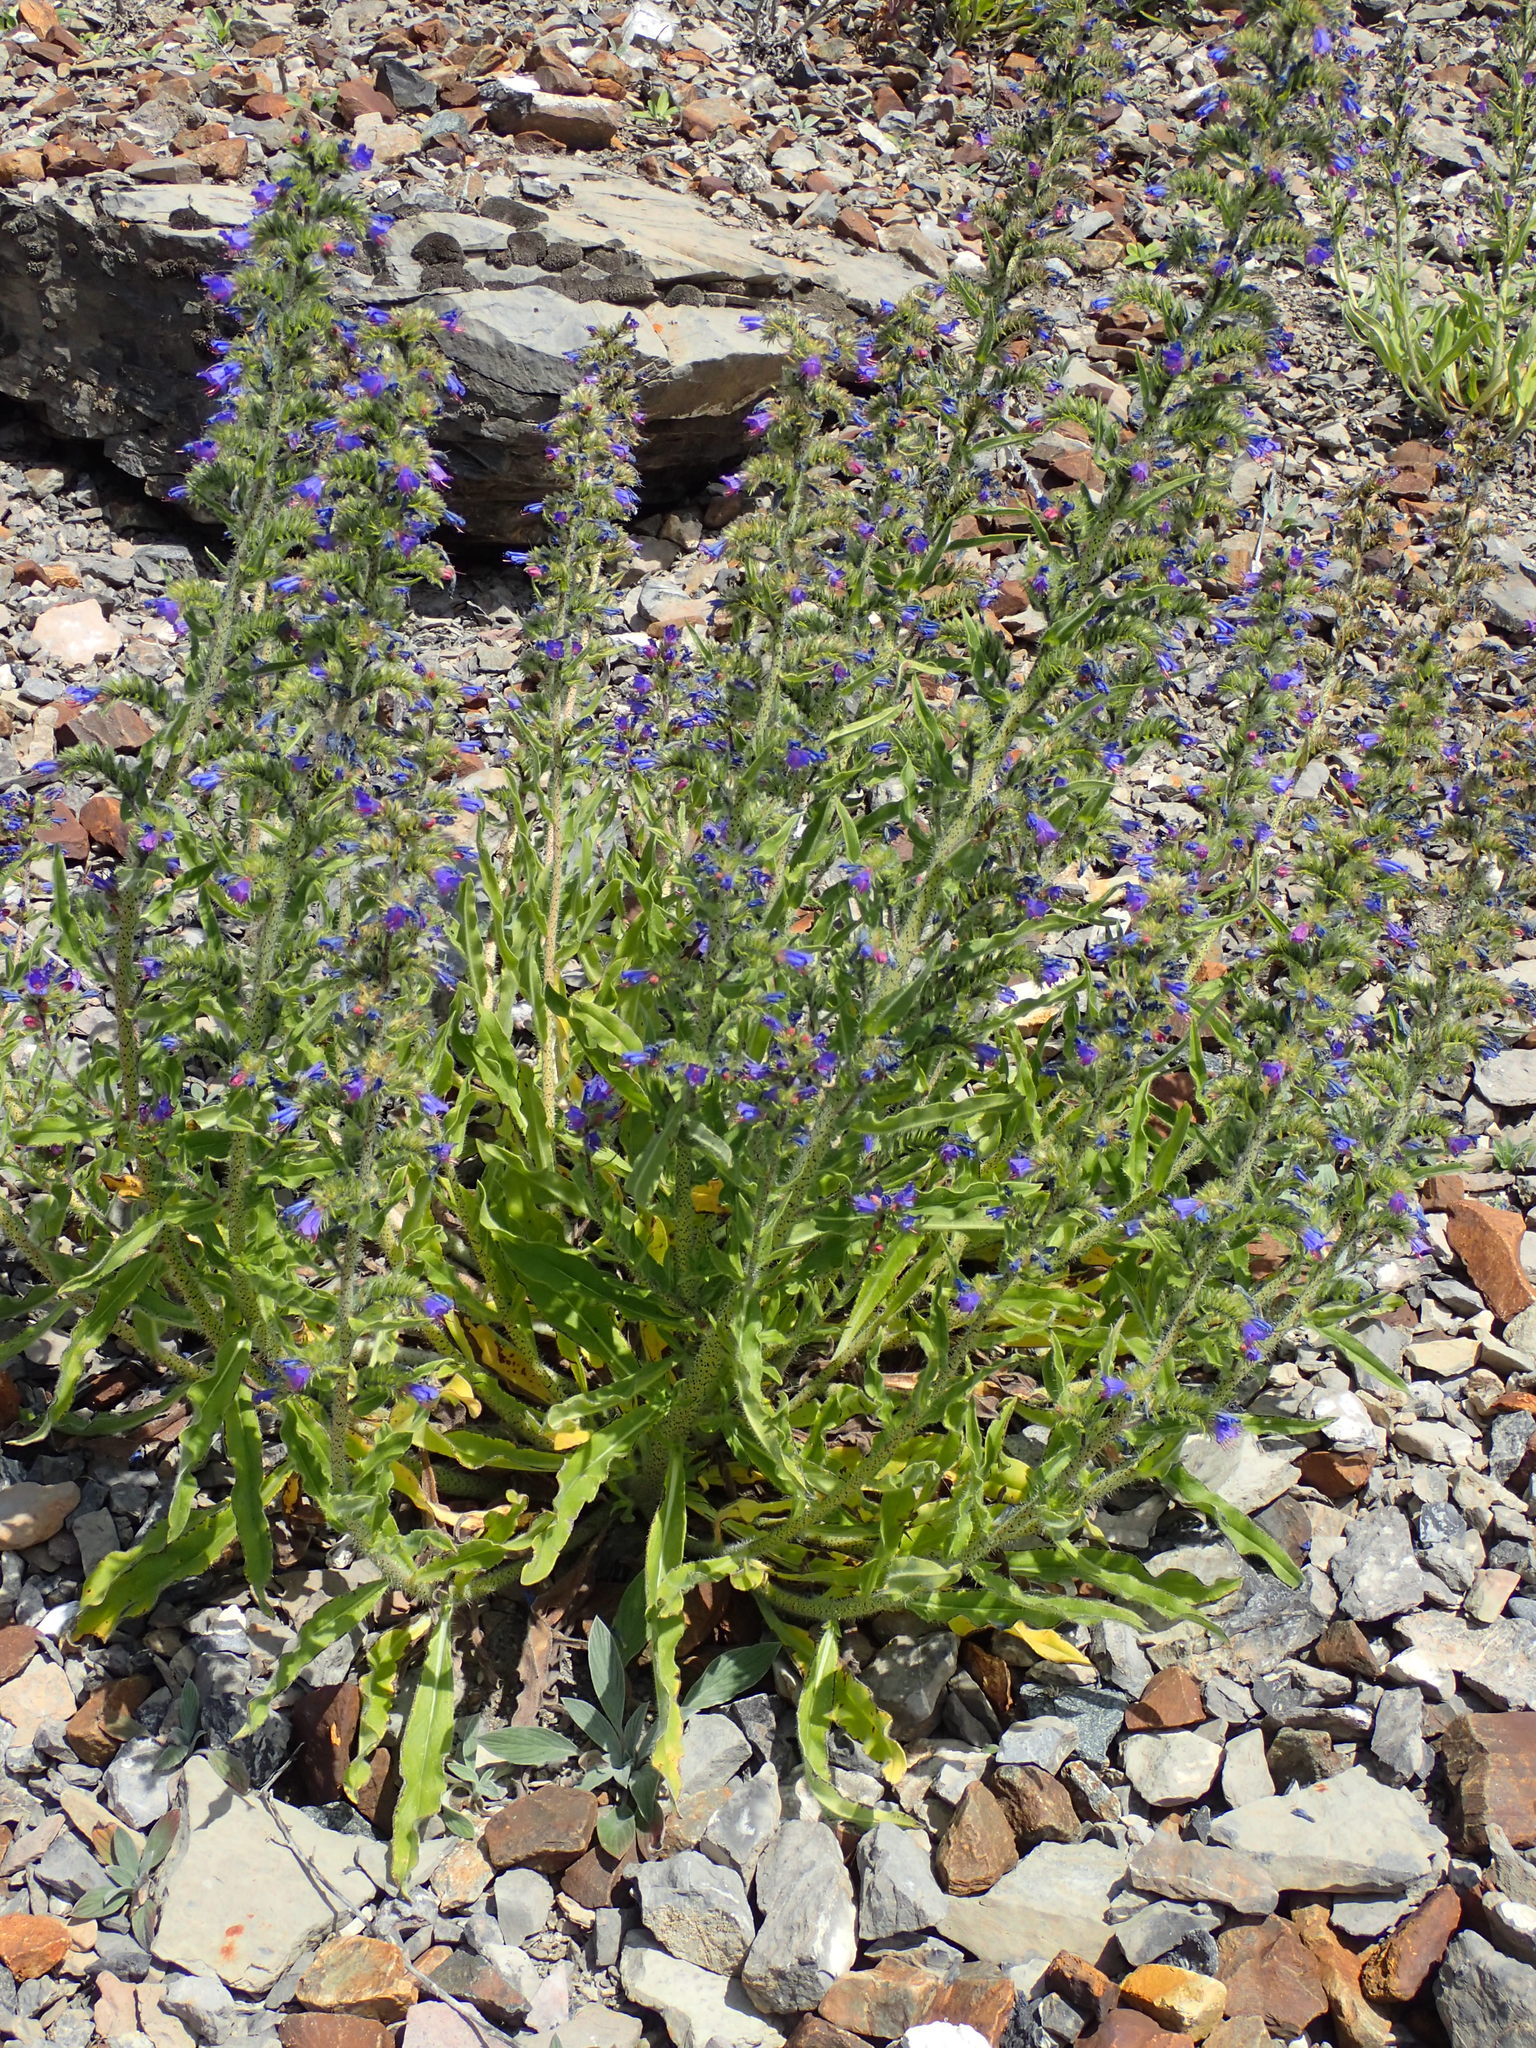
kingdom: Plantae
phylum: Tracheophyta
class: Magnoliopsida
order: Boraginales
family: Boraginaceae
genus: Echium
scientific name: Echium vulgare
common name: Common viper's bugloss
